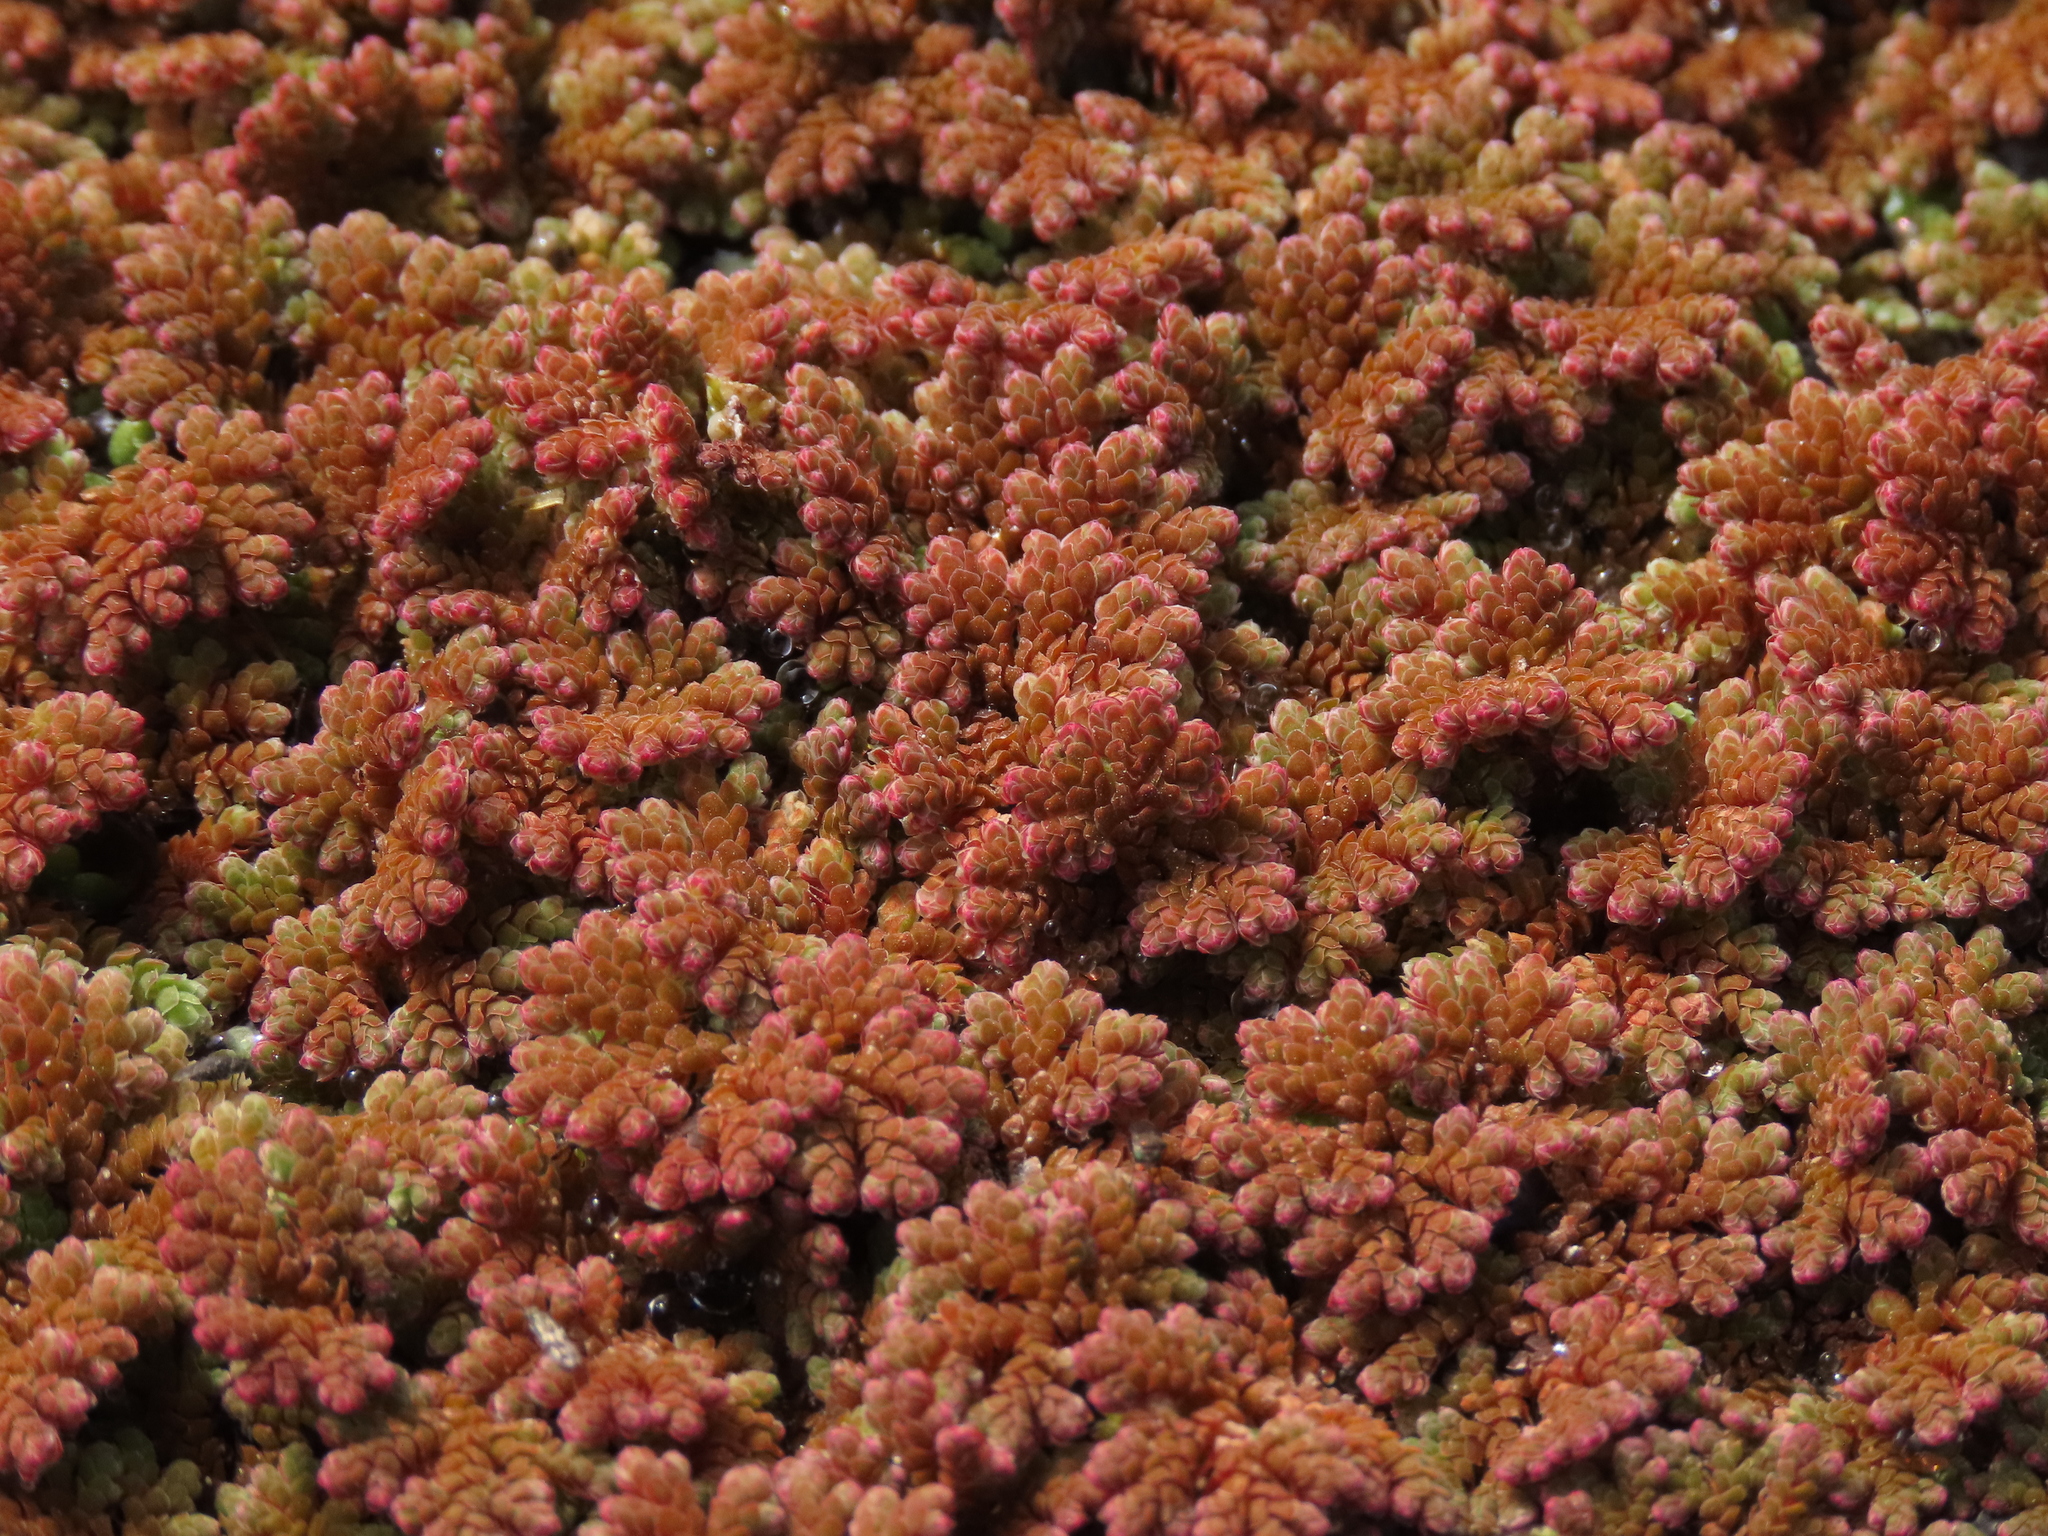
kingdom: Plantae
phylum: Tracheophyta
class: Polypodiopsida
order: Salviniales
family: Salviniaceae
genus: Azolla
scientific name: Azolla filiculoides
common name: Water fern
